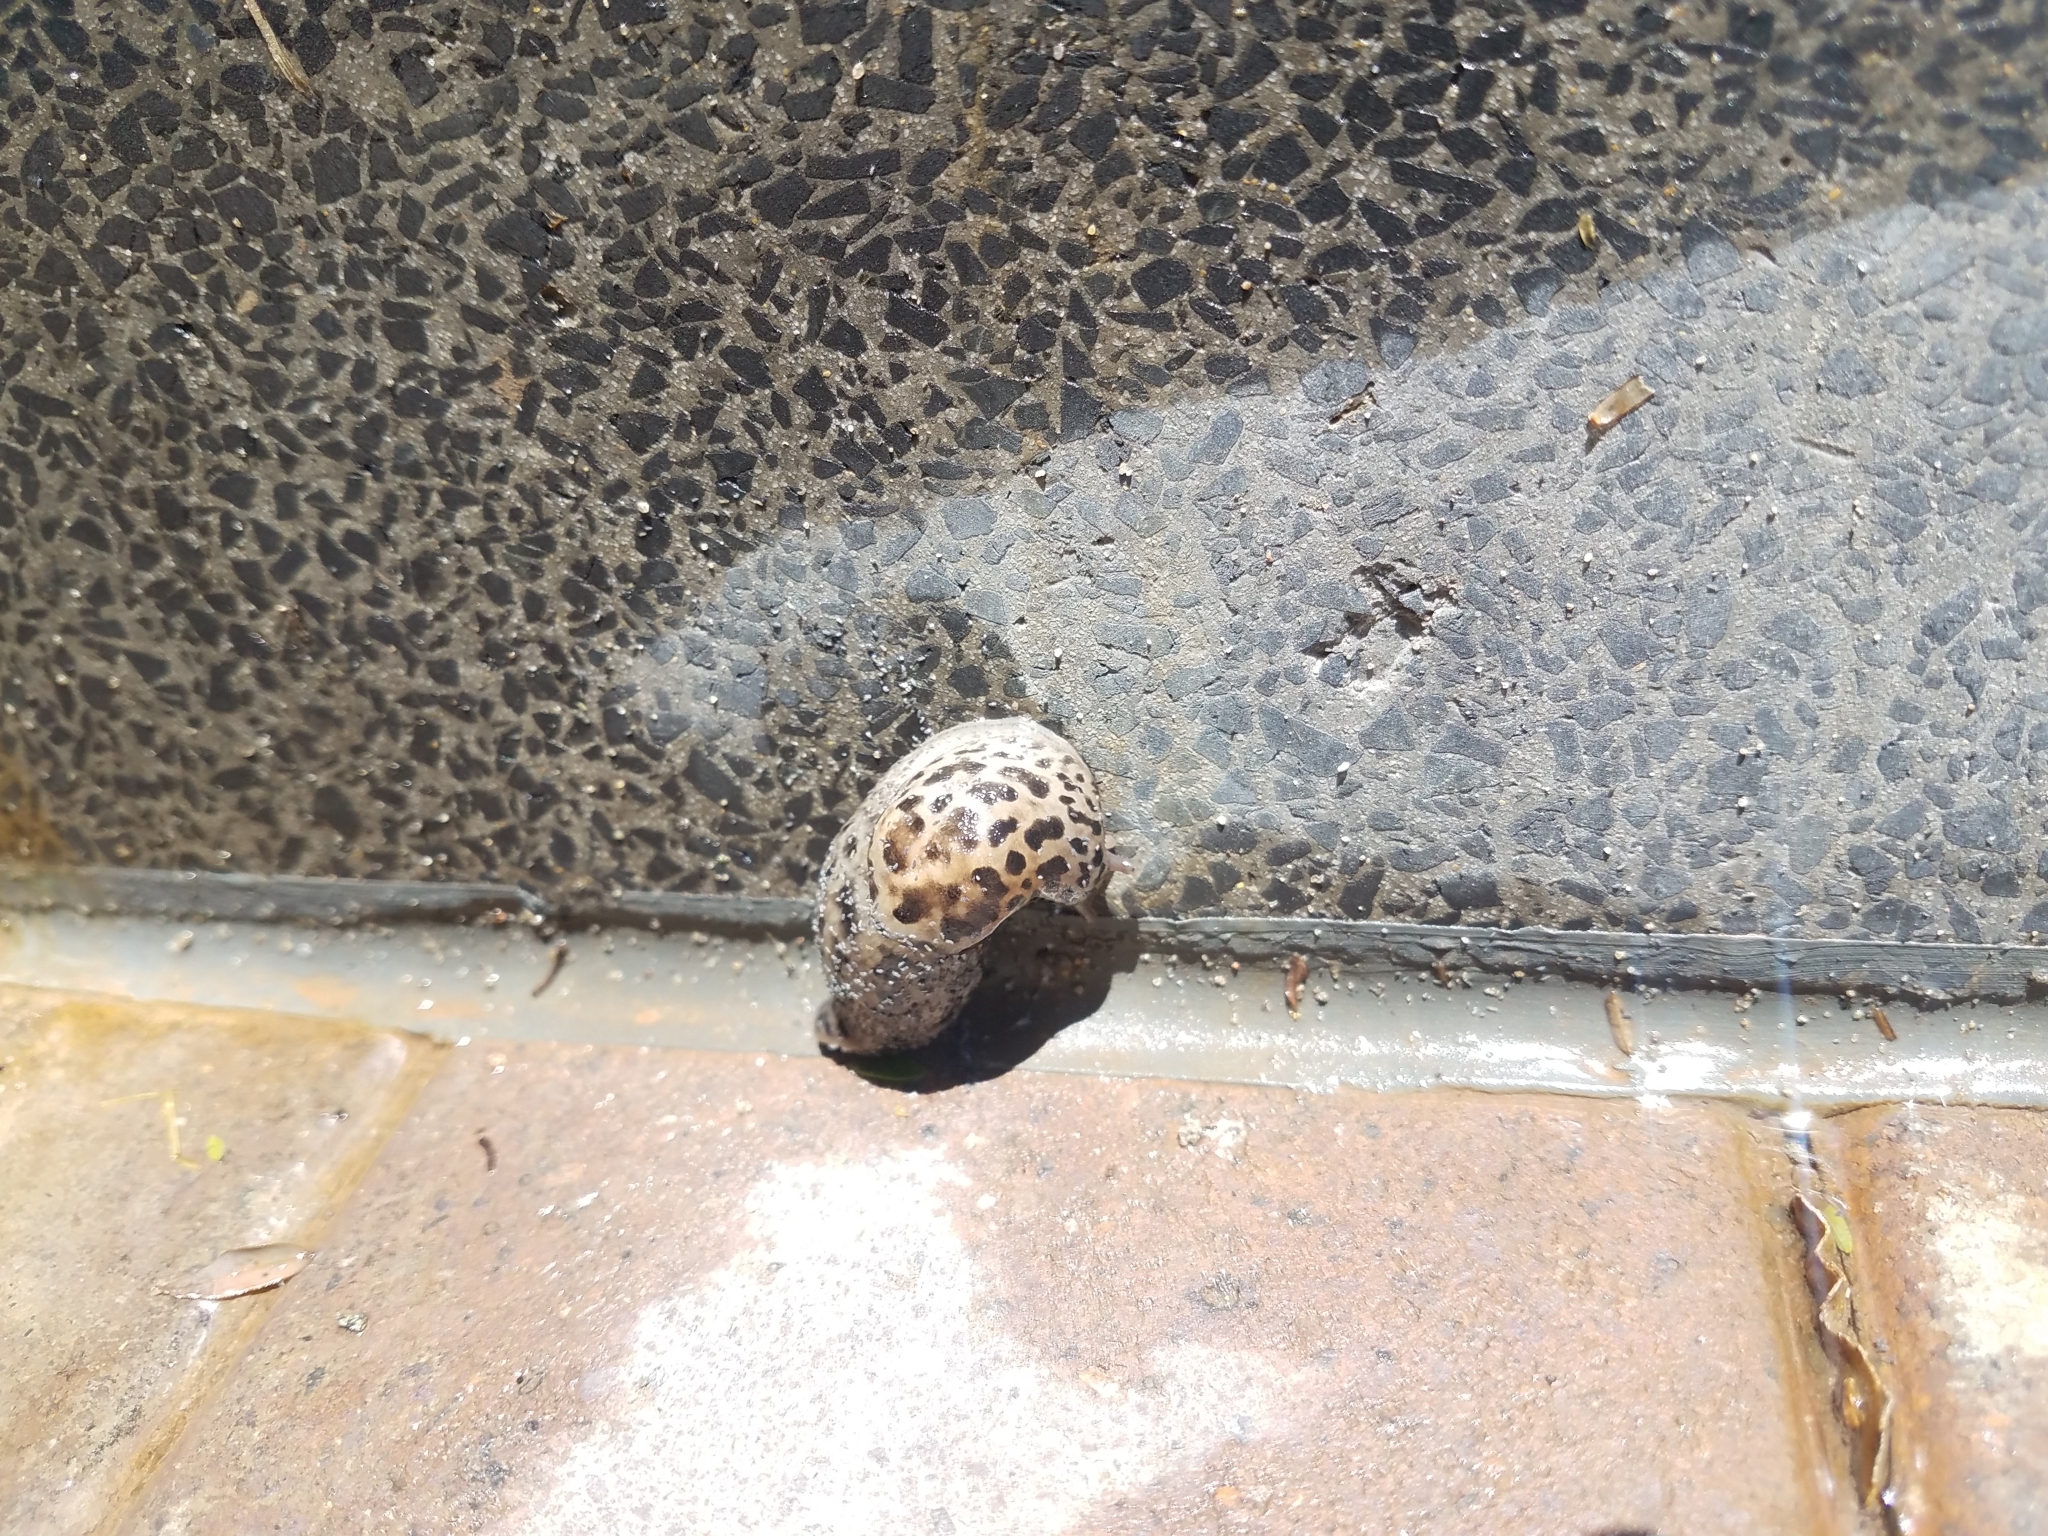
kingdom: Animalia
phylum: Mollusca
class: Gastropoda
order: Stylommatophora
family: Limacidae
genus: Limax
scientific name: Limax maximus
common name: Great grey slug
